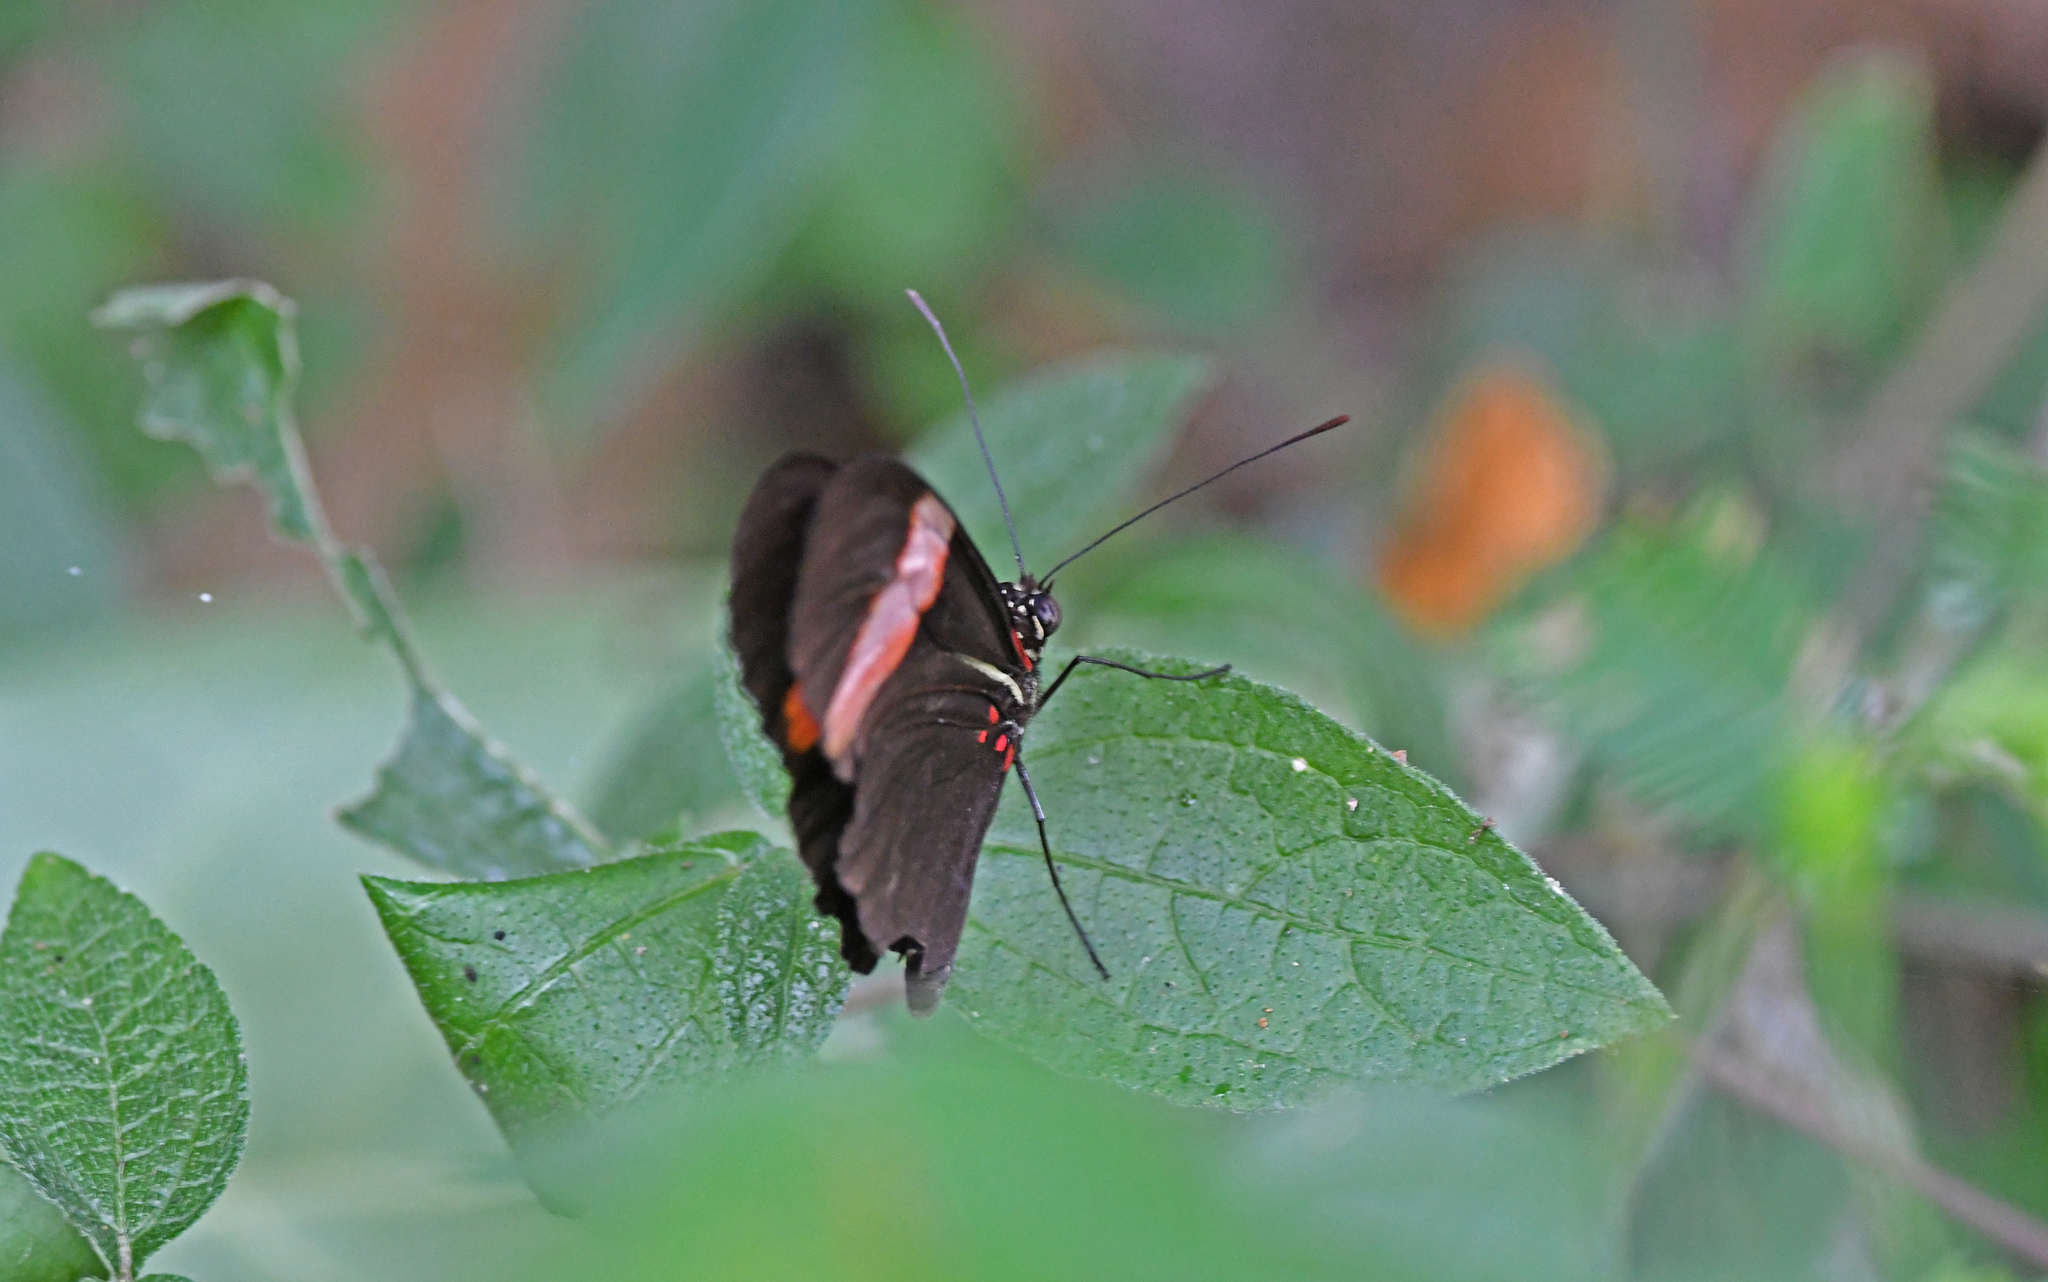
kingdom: Animalia
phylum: Arthropoda
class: Insecta
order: Lepidoptera
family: Nymphalidae
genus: Heliconius
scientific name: Heliconius erato
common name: Common patch longwing
